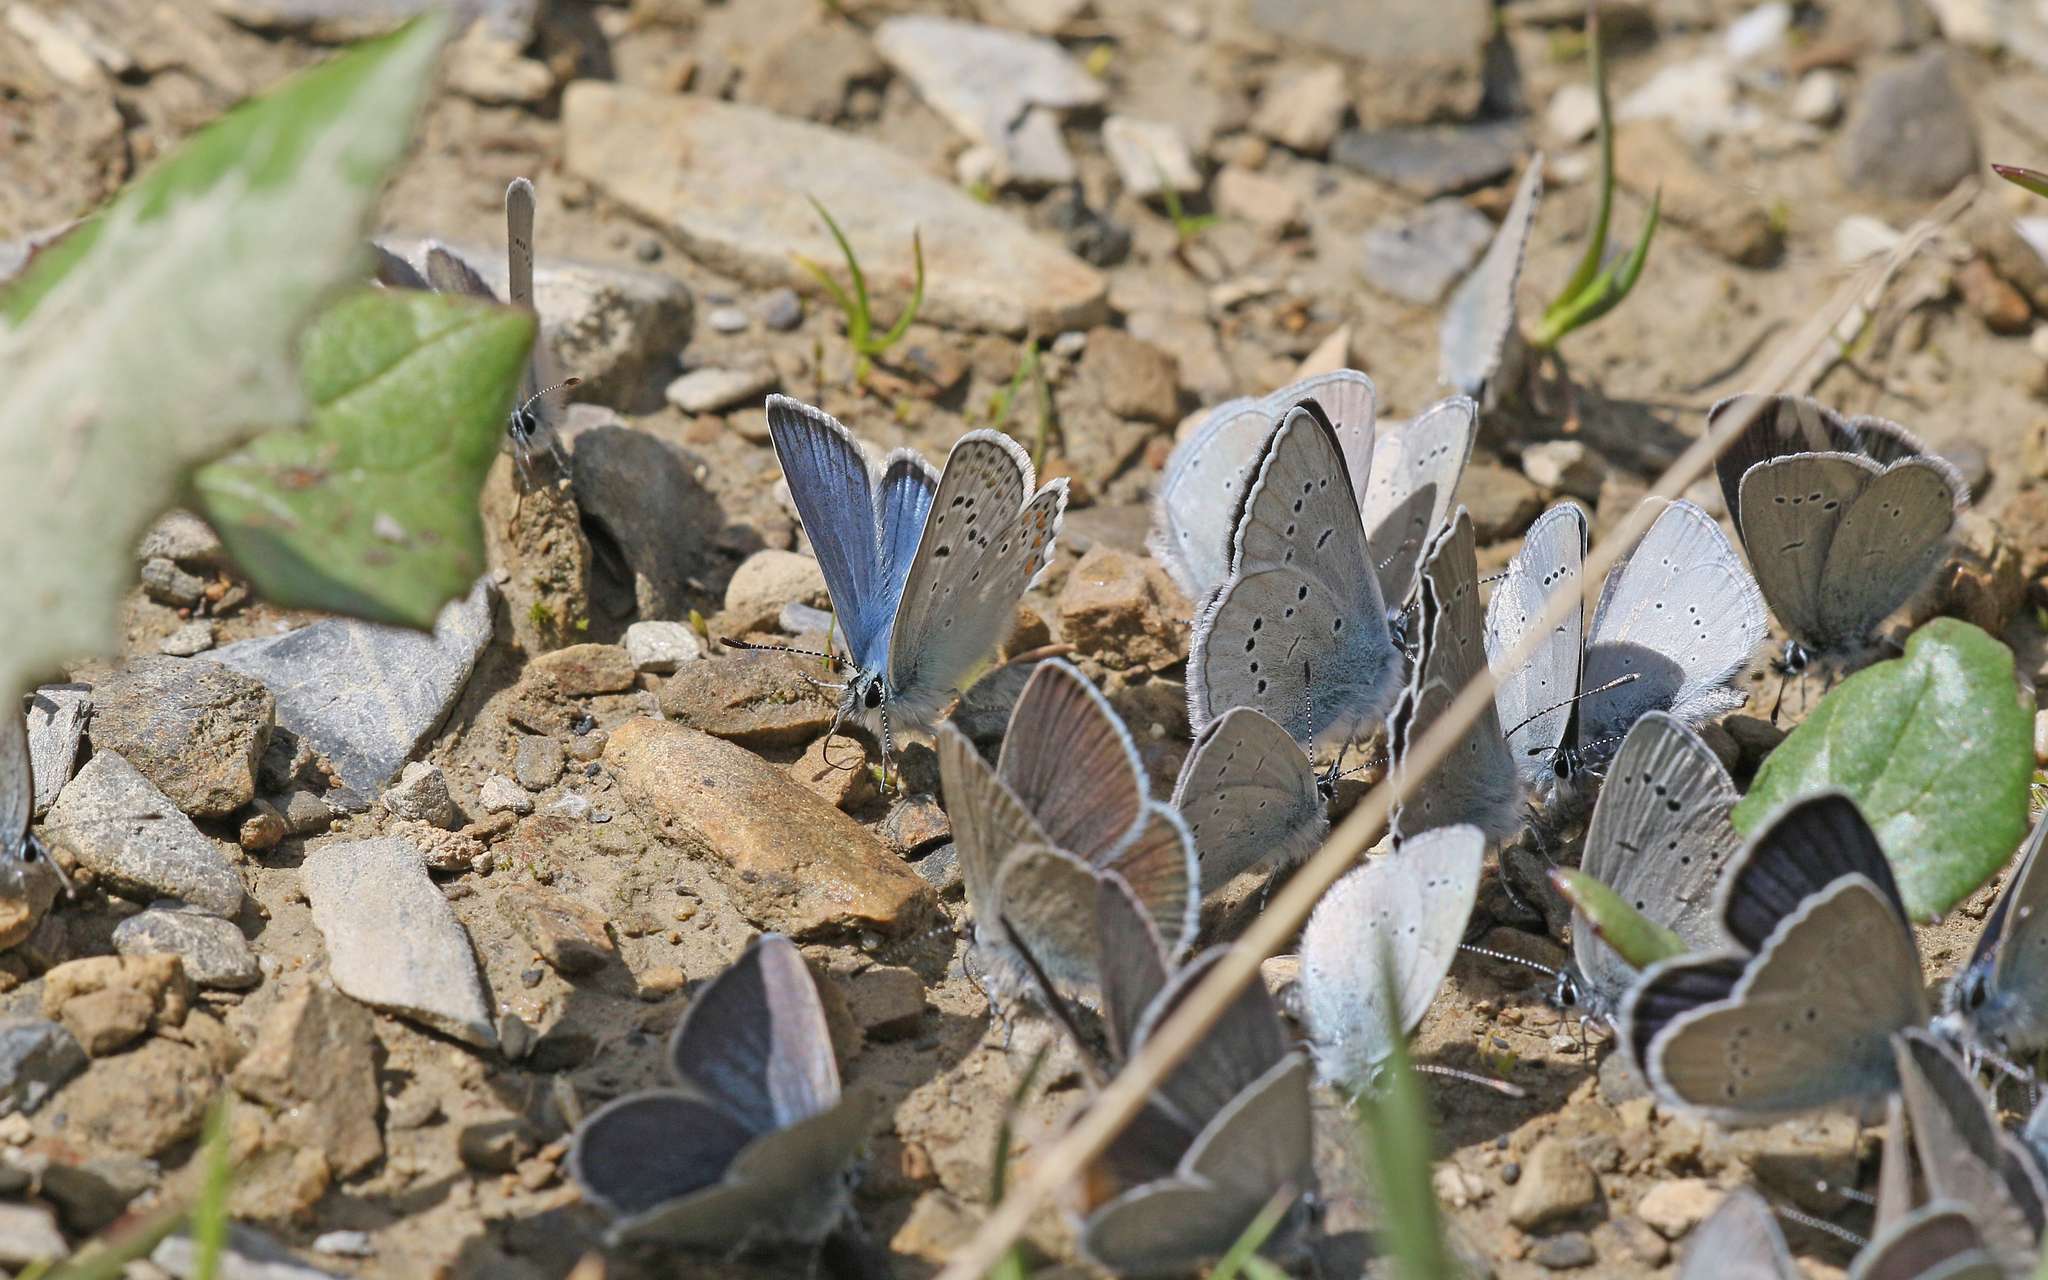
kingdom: Animalia
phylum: Arthropoda
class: Insecta
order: Lepidoptera
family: Lycaenidae
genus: Polyommatus
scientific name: Polyommatus eros
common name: Eros blue
